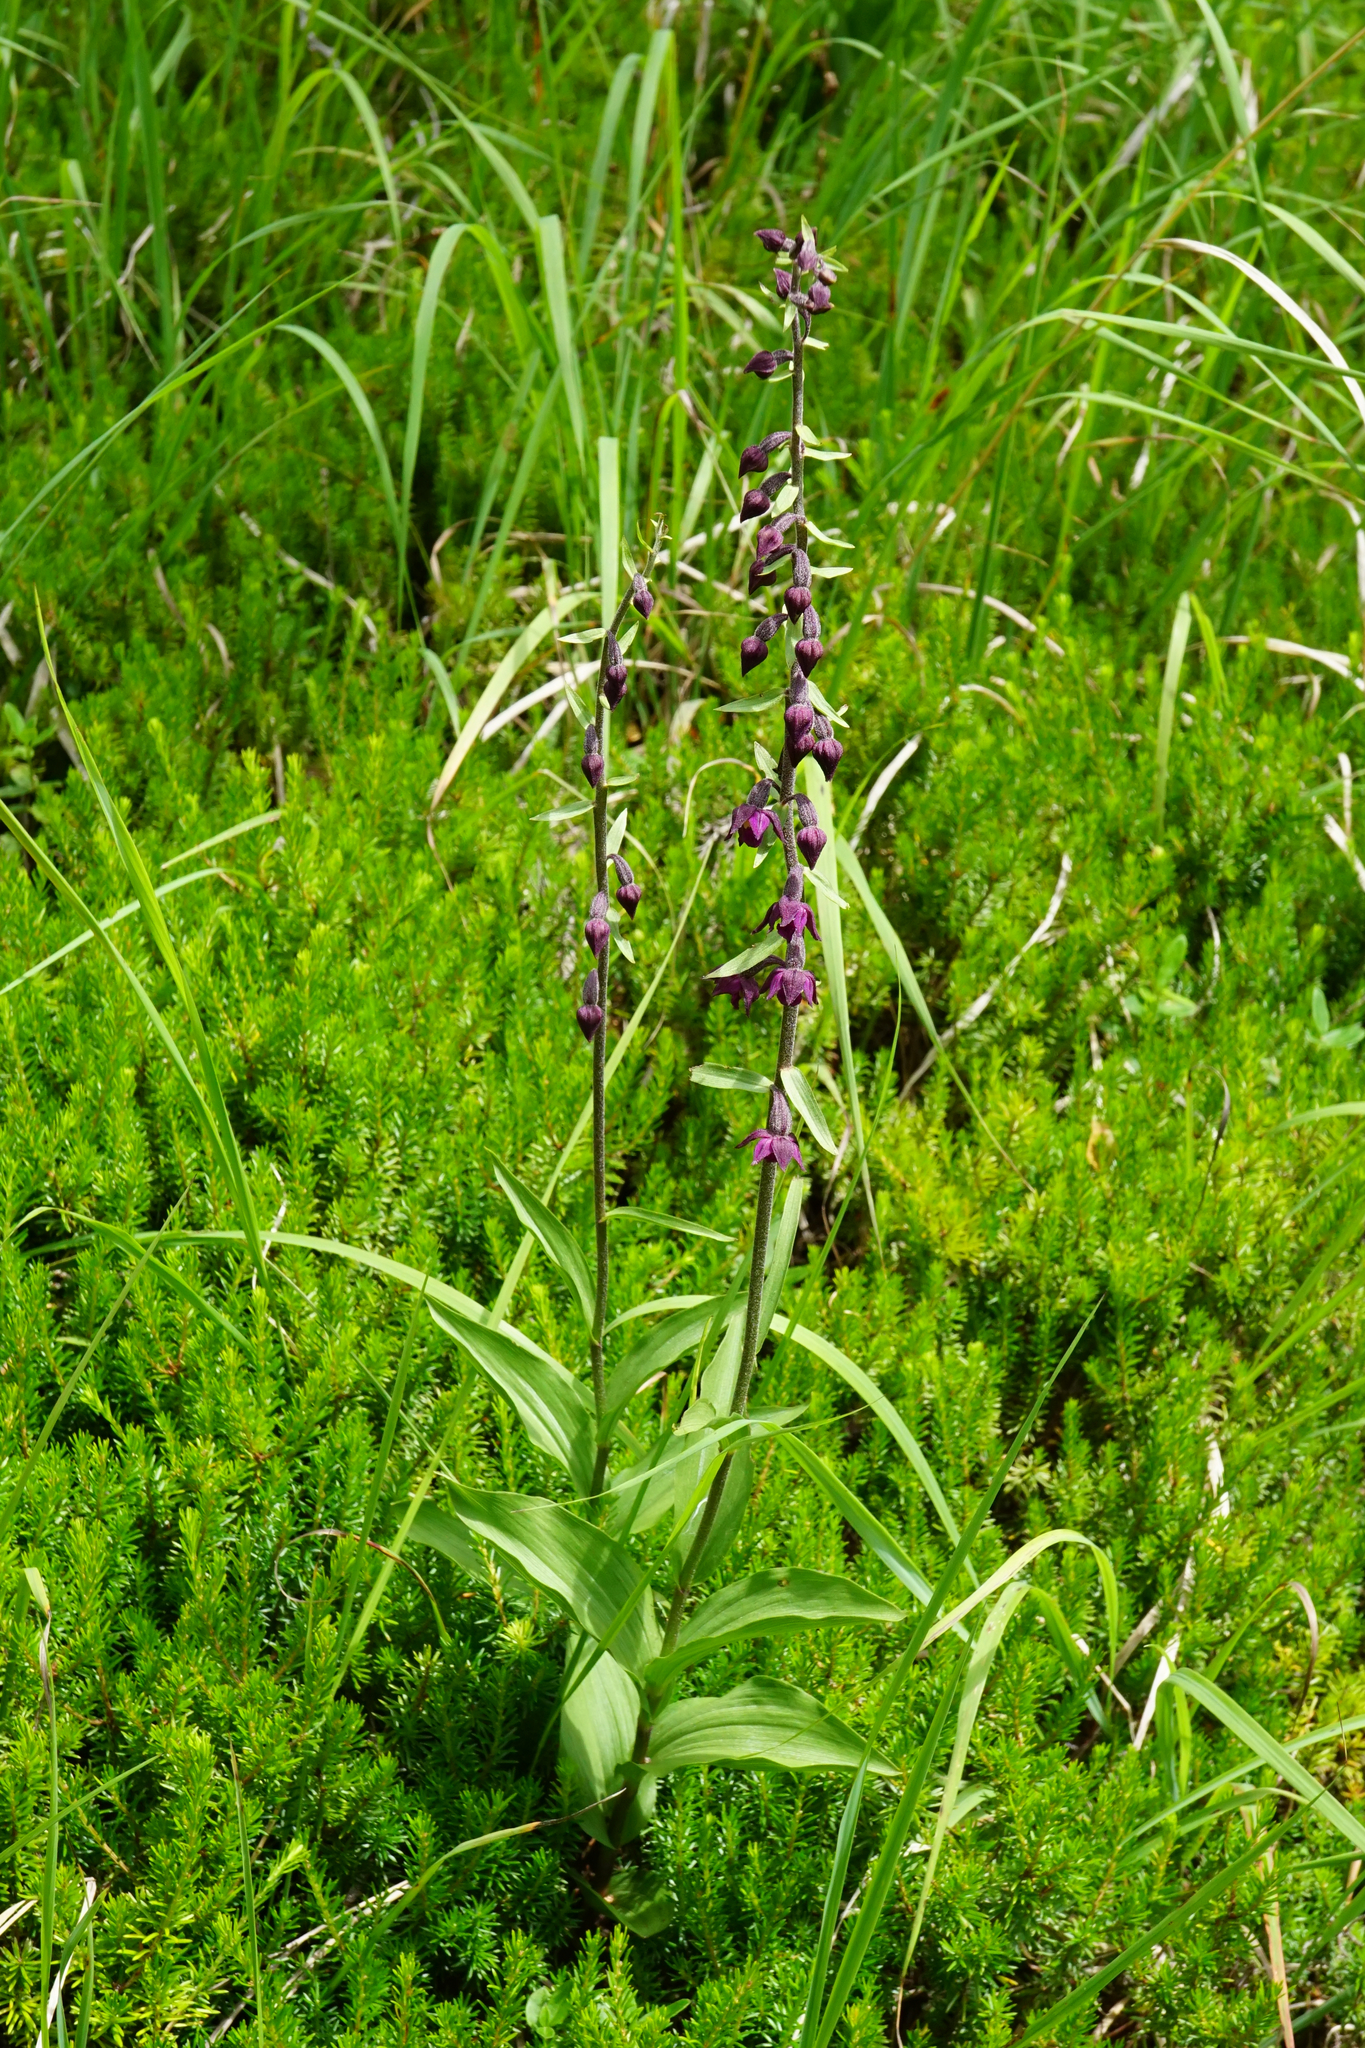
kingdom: Plantae
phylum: Tracheophyta
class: Liliopsida
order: Asparagales
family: Orchidaceae
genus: Epipactis
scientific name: Epipactis atrorubens
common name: Dark-red helleborine
